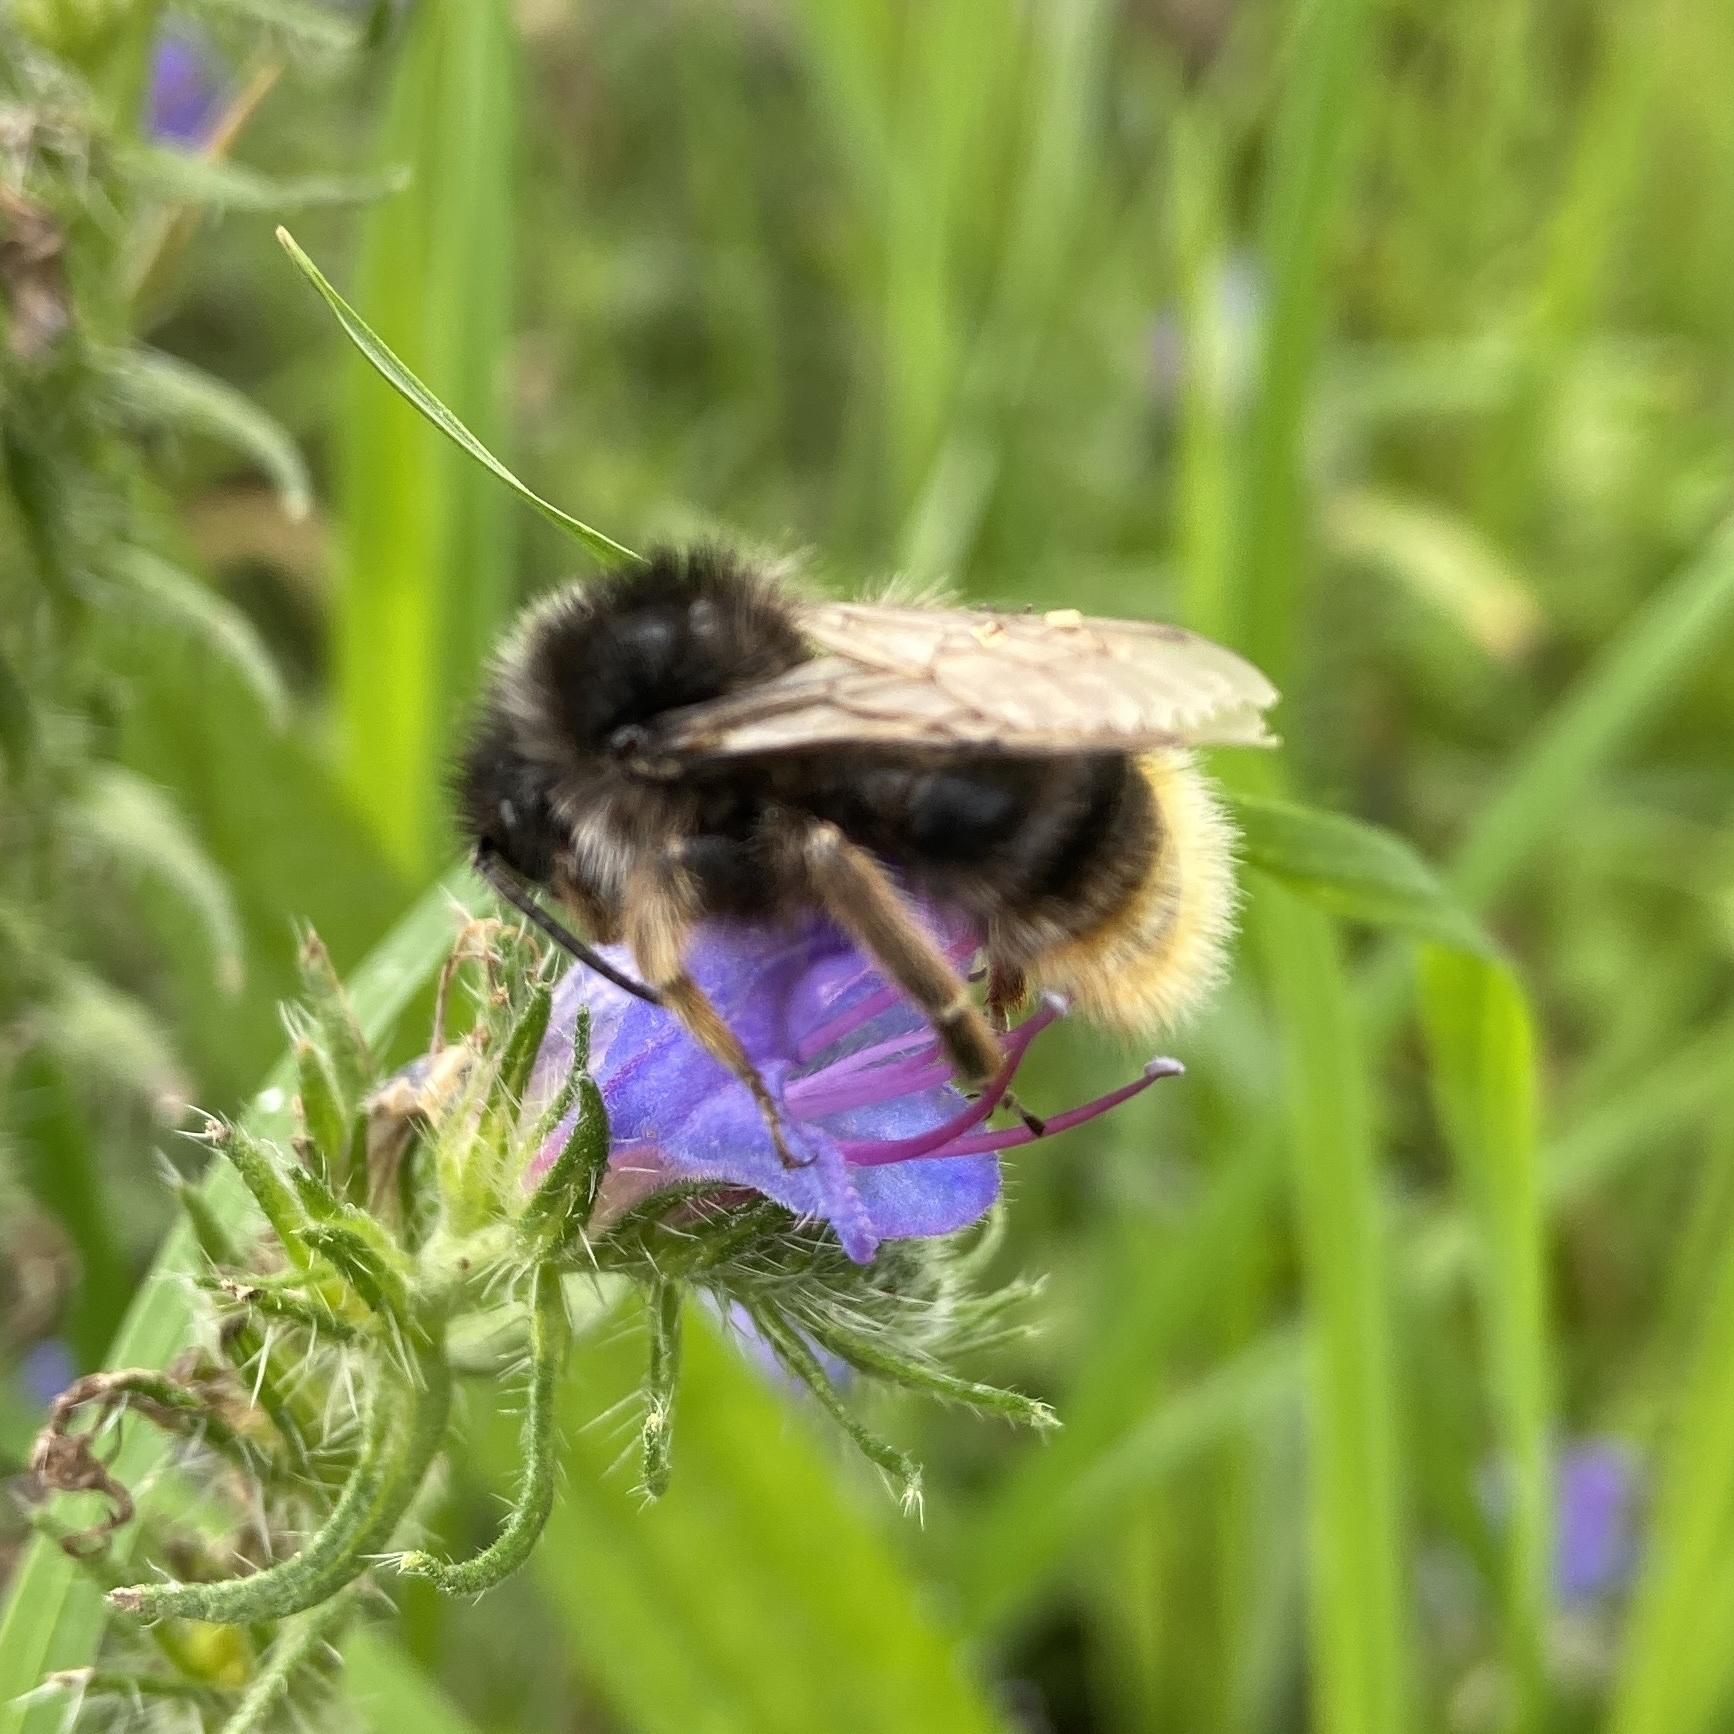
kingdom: Animalia
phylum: Arthropoda
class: Insecta
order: Hymenoptera
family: Apidae
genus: Bombus
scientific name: Bombus rupestris
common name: Hill cuckoo-bee
